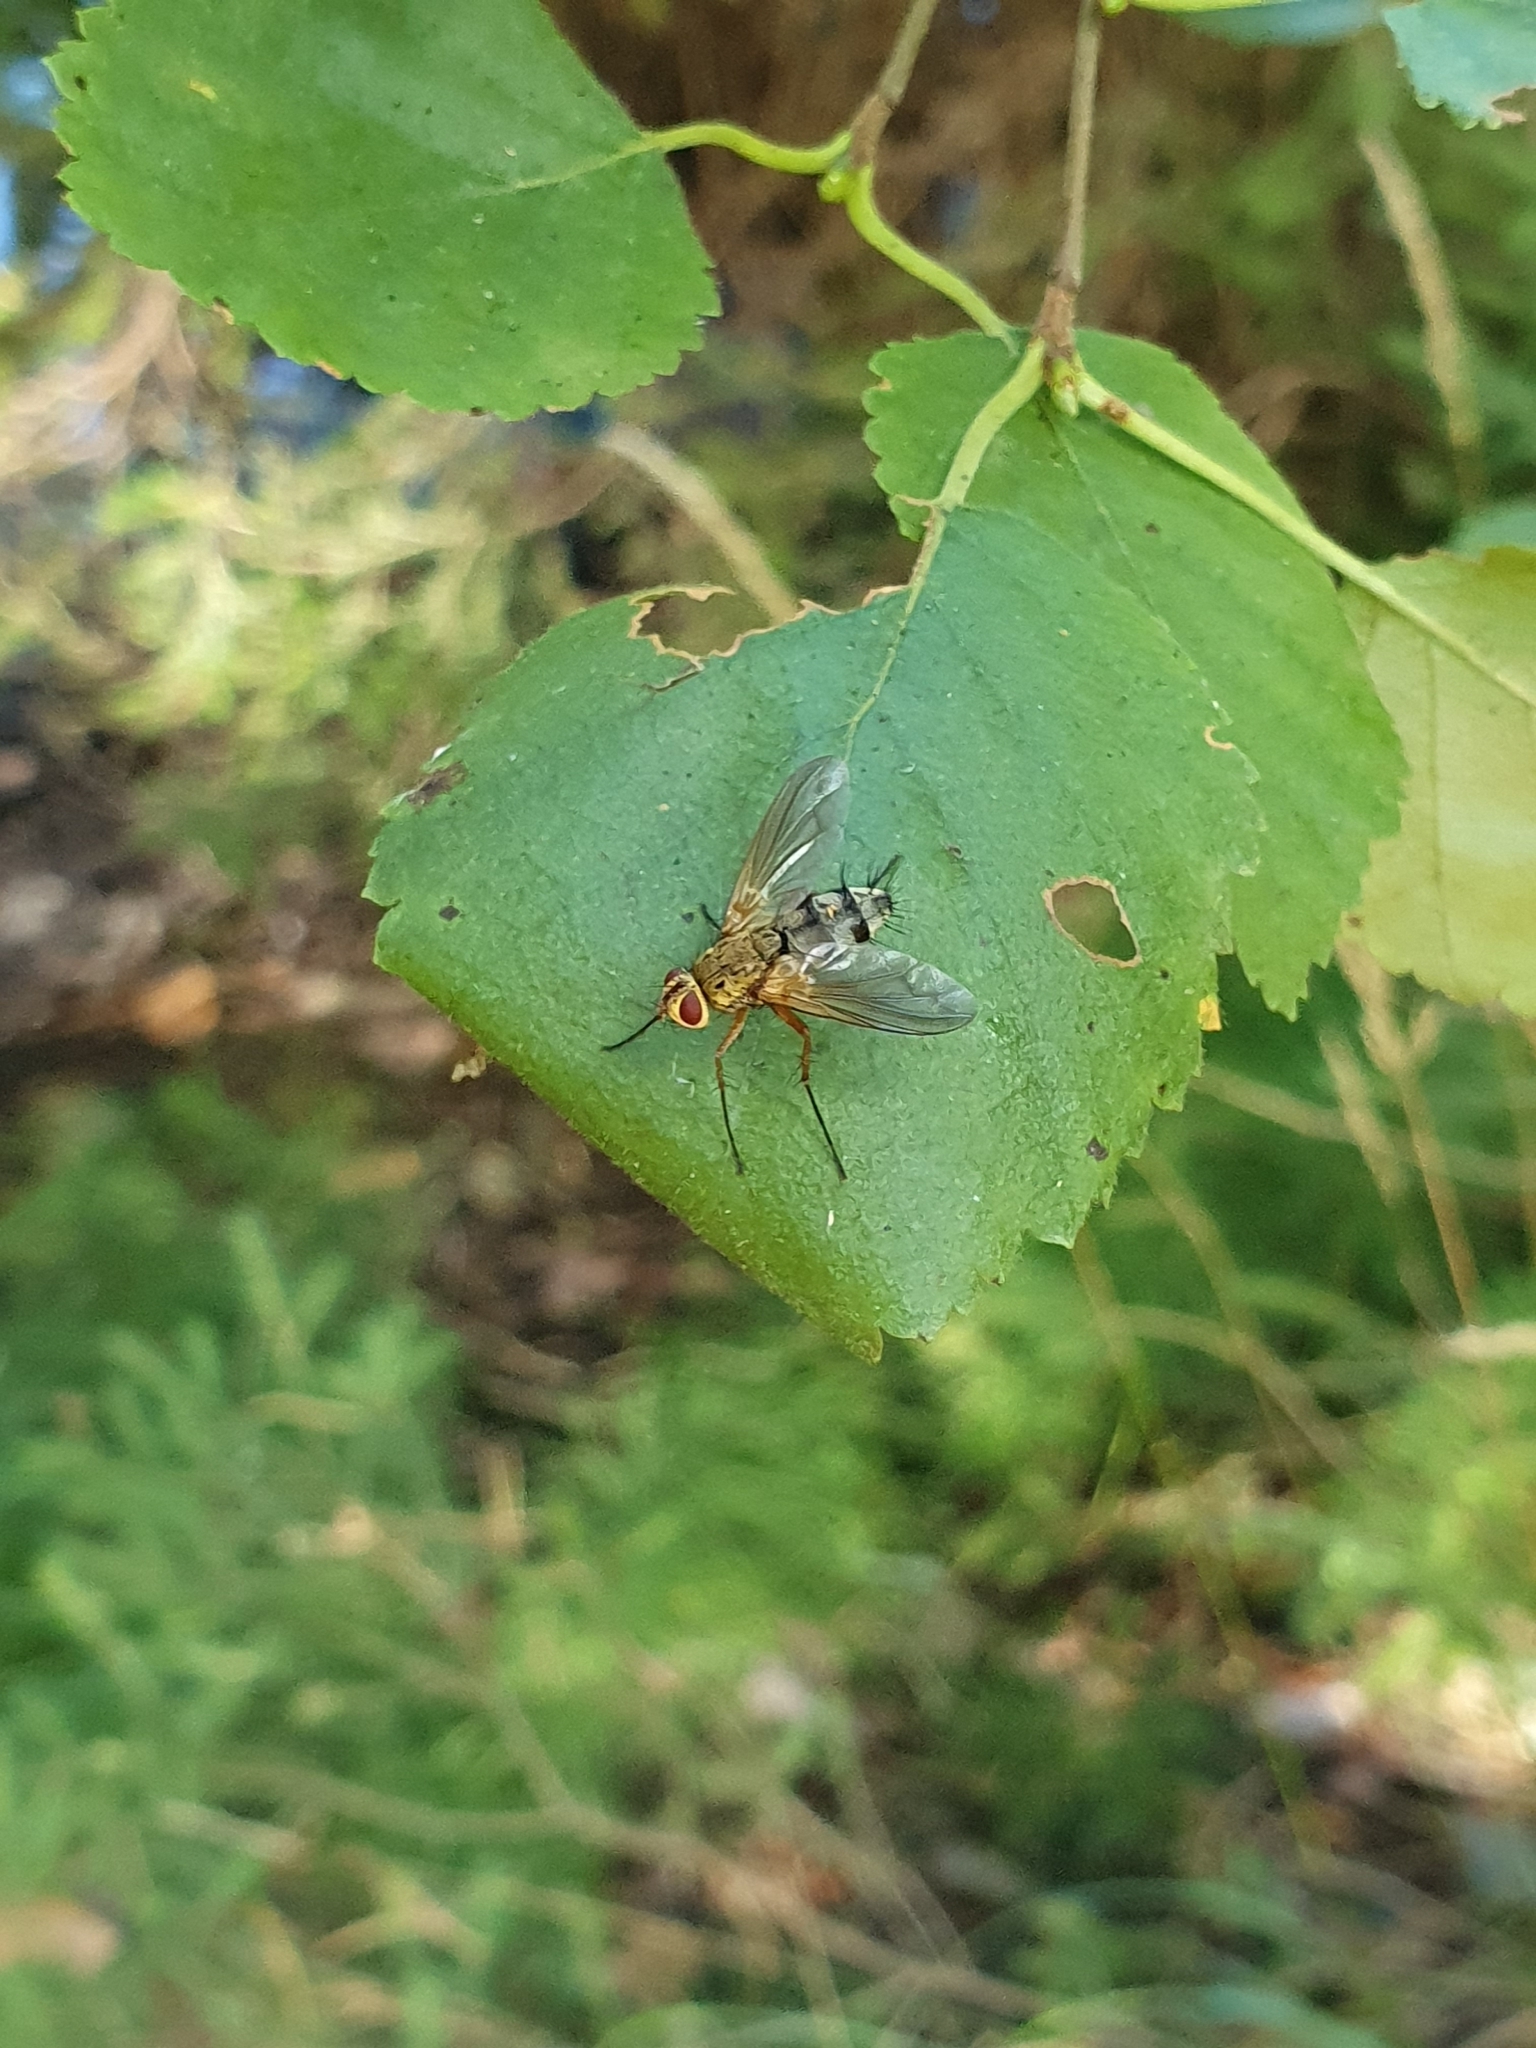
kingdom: Animalia
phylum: Arthropoda
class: Insecta
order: Diptera
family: Tachinidae
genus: Dexiosoma
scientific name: Dexiosoma caninum
